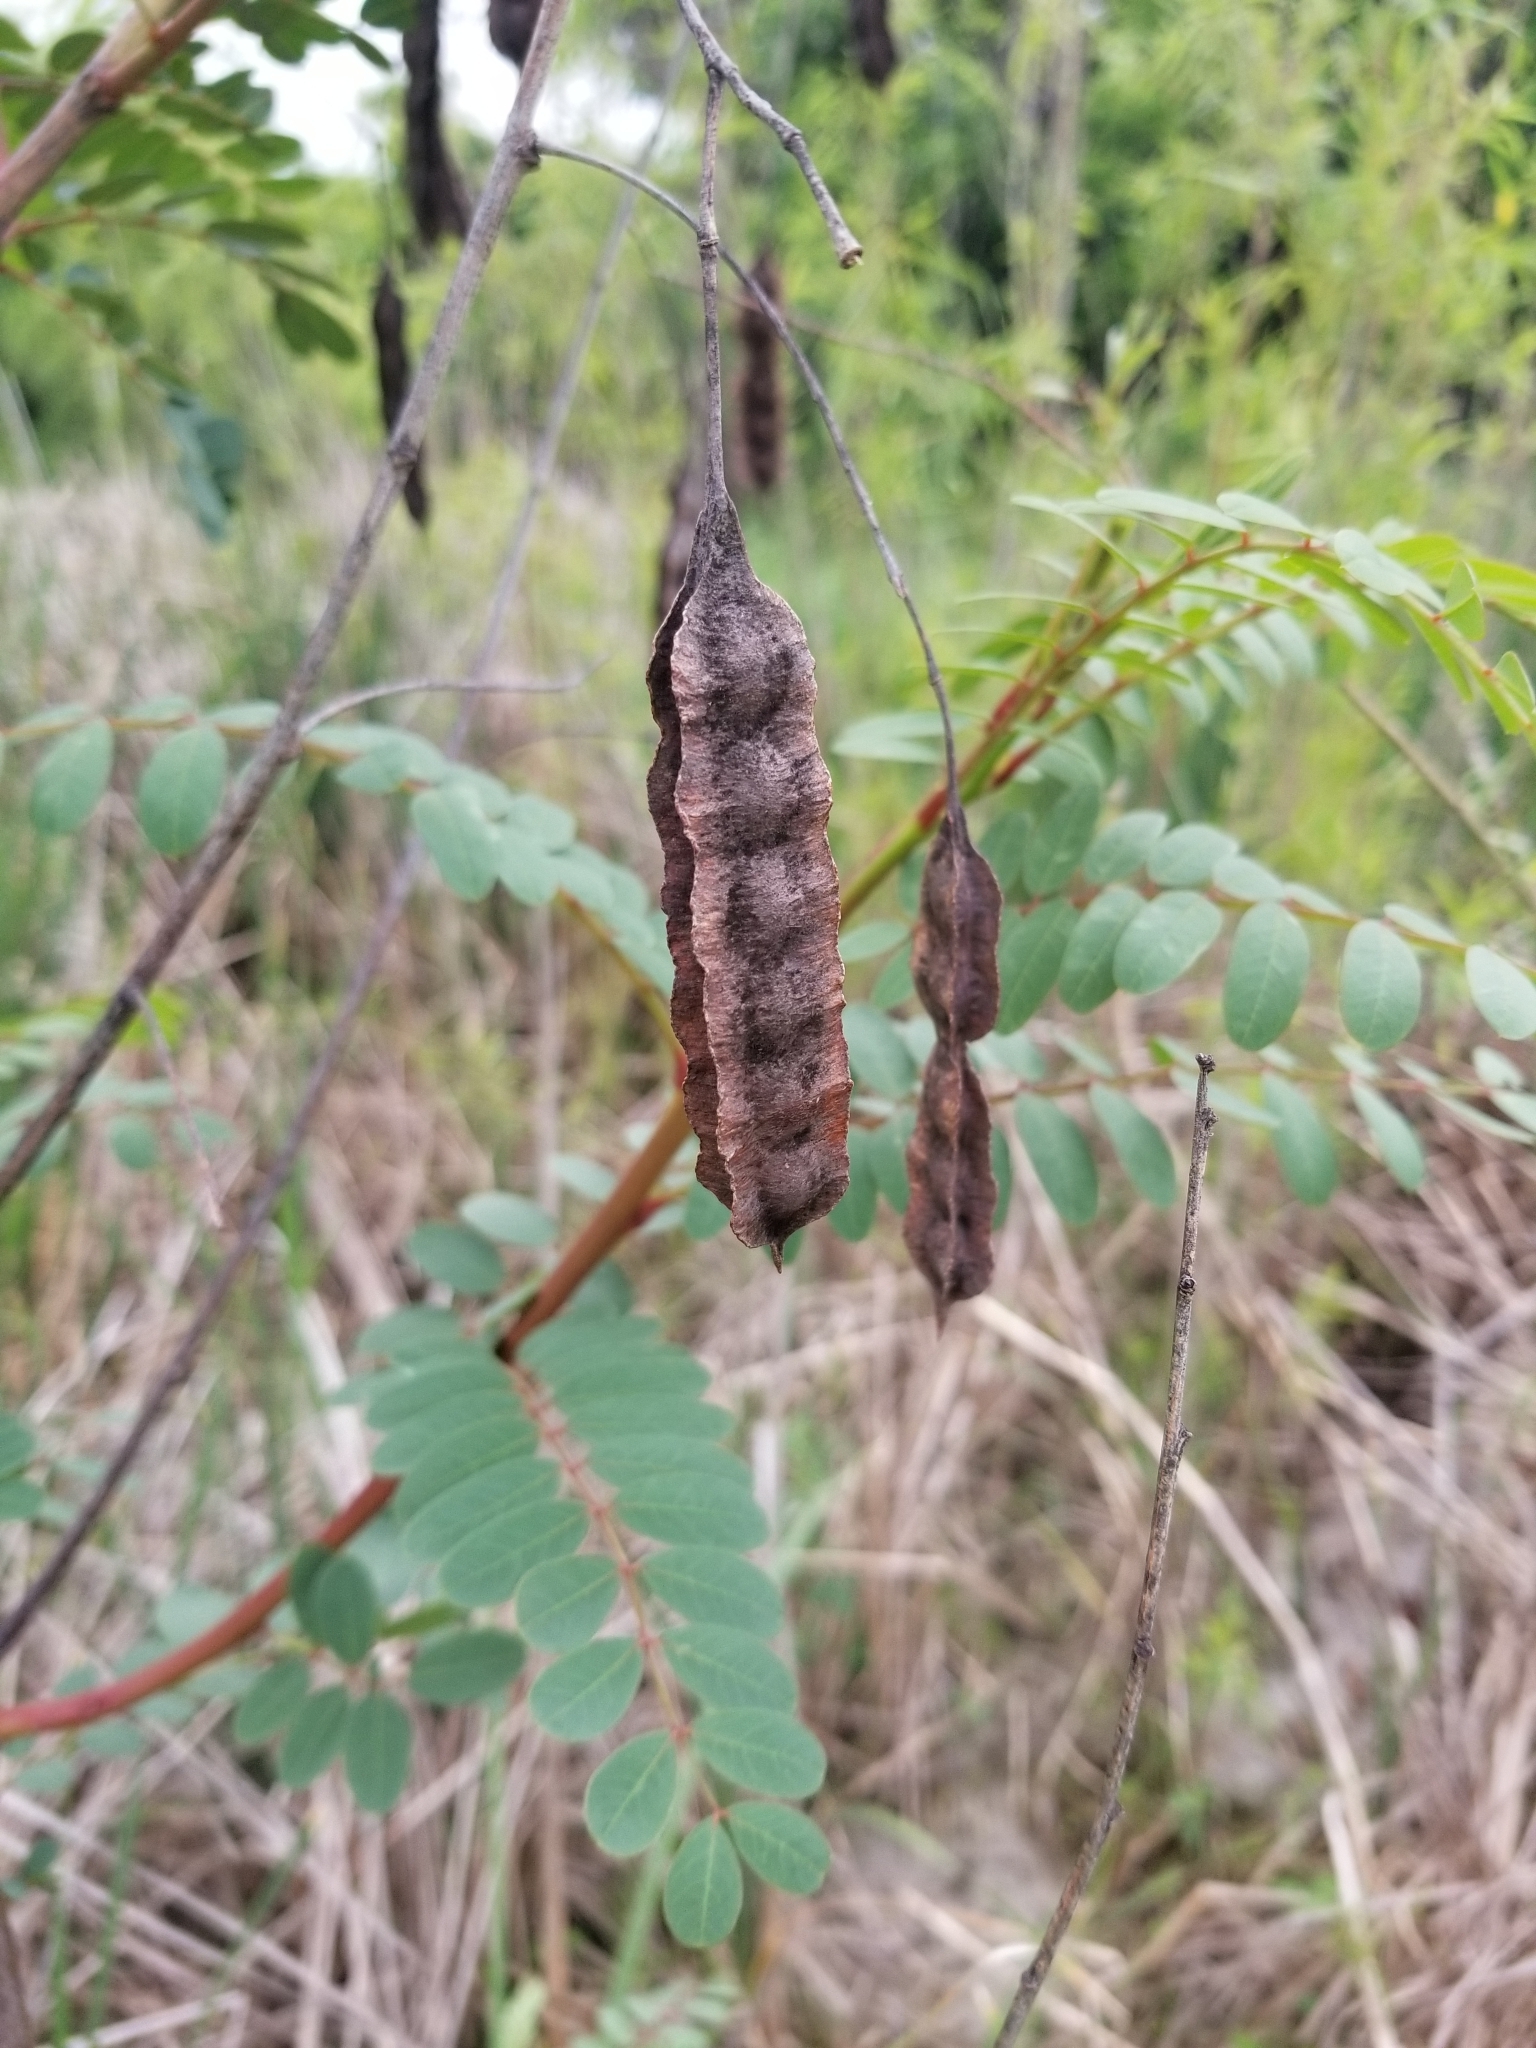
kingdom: Plantae
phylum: Tracheophyta
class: Magnoliopsida
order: Fabales
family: Fabaceae
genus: Sesbania
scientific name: Sesbania drummondii
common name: Poison-bean
